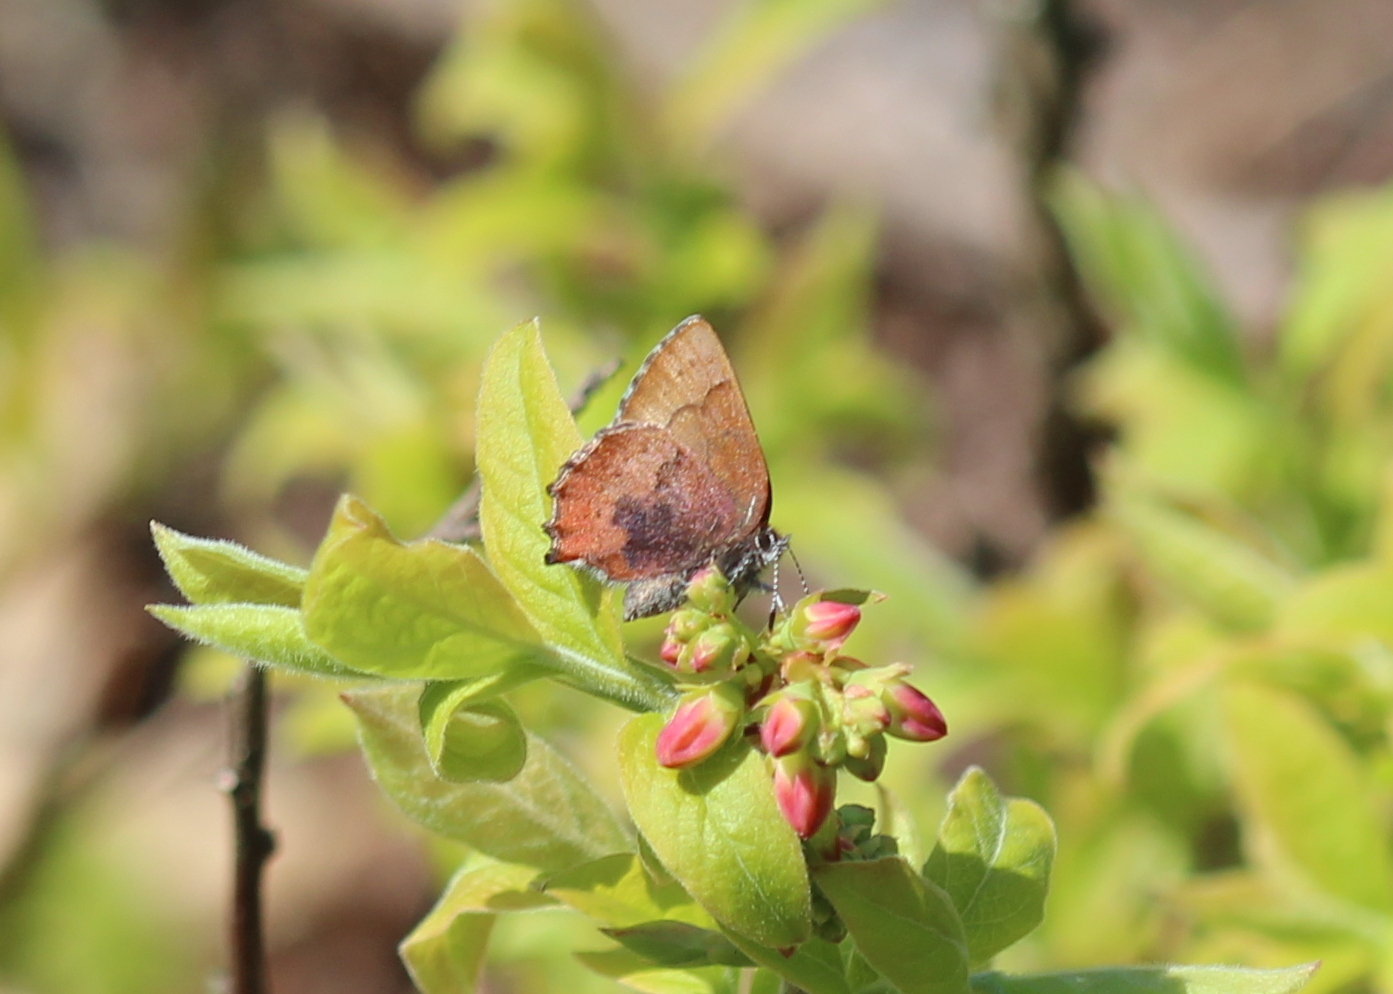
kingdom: Animalia
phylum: Arthropoda
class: Insecta
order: Lepidoptera
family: Lycaenidae
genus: Incisalia
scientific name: Incisalia irioides
